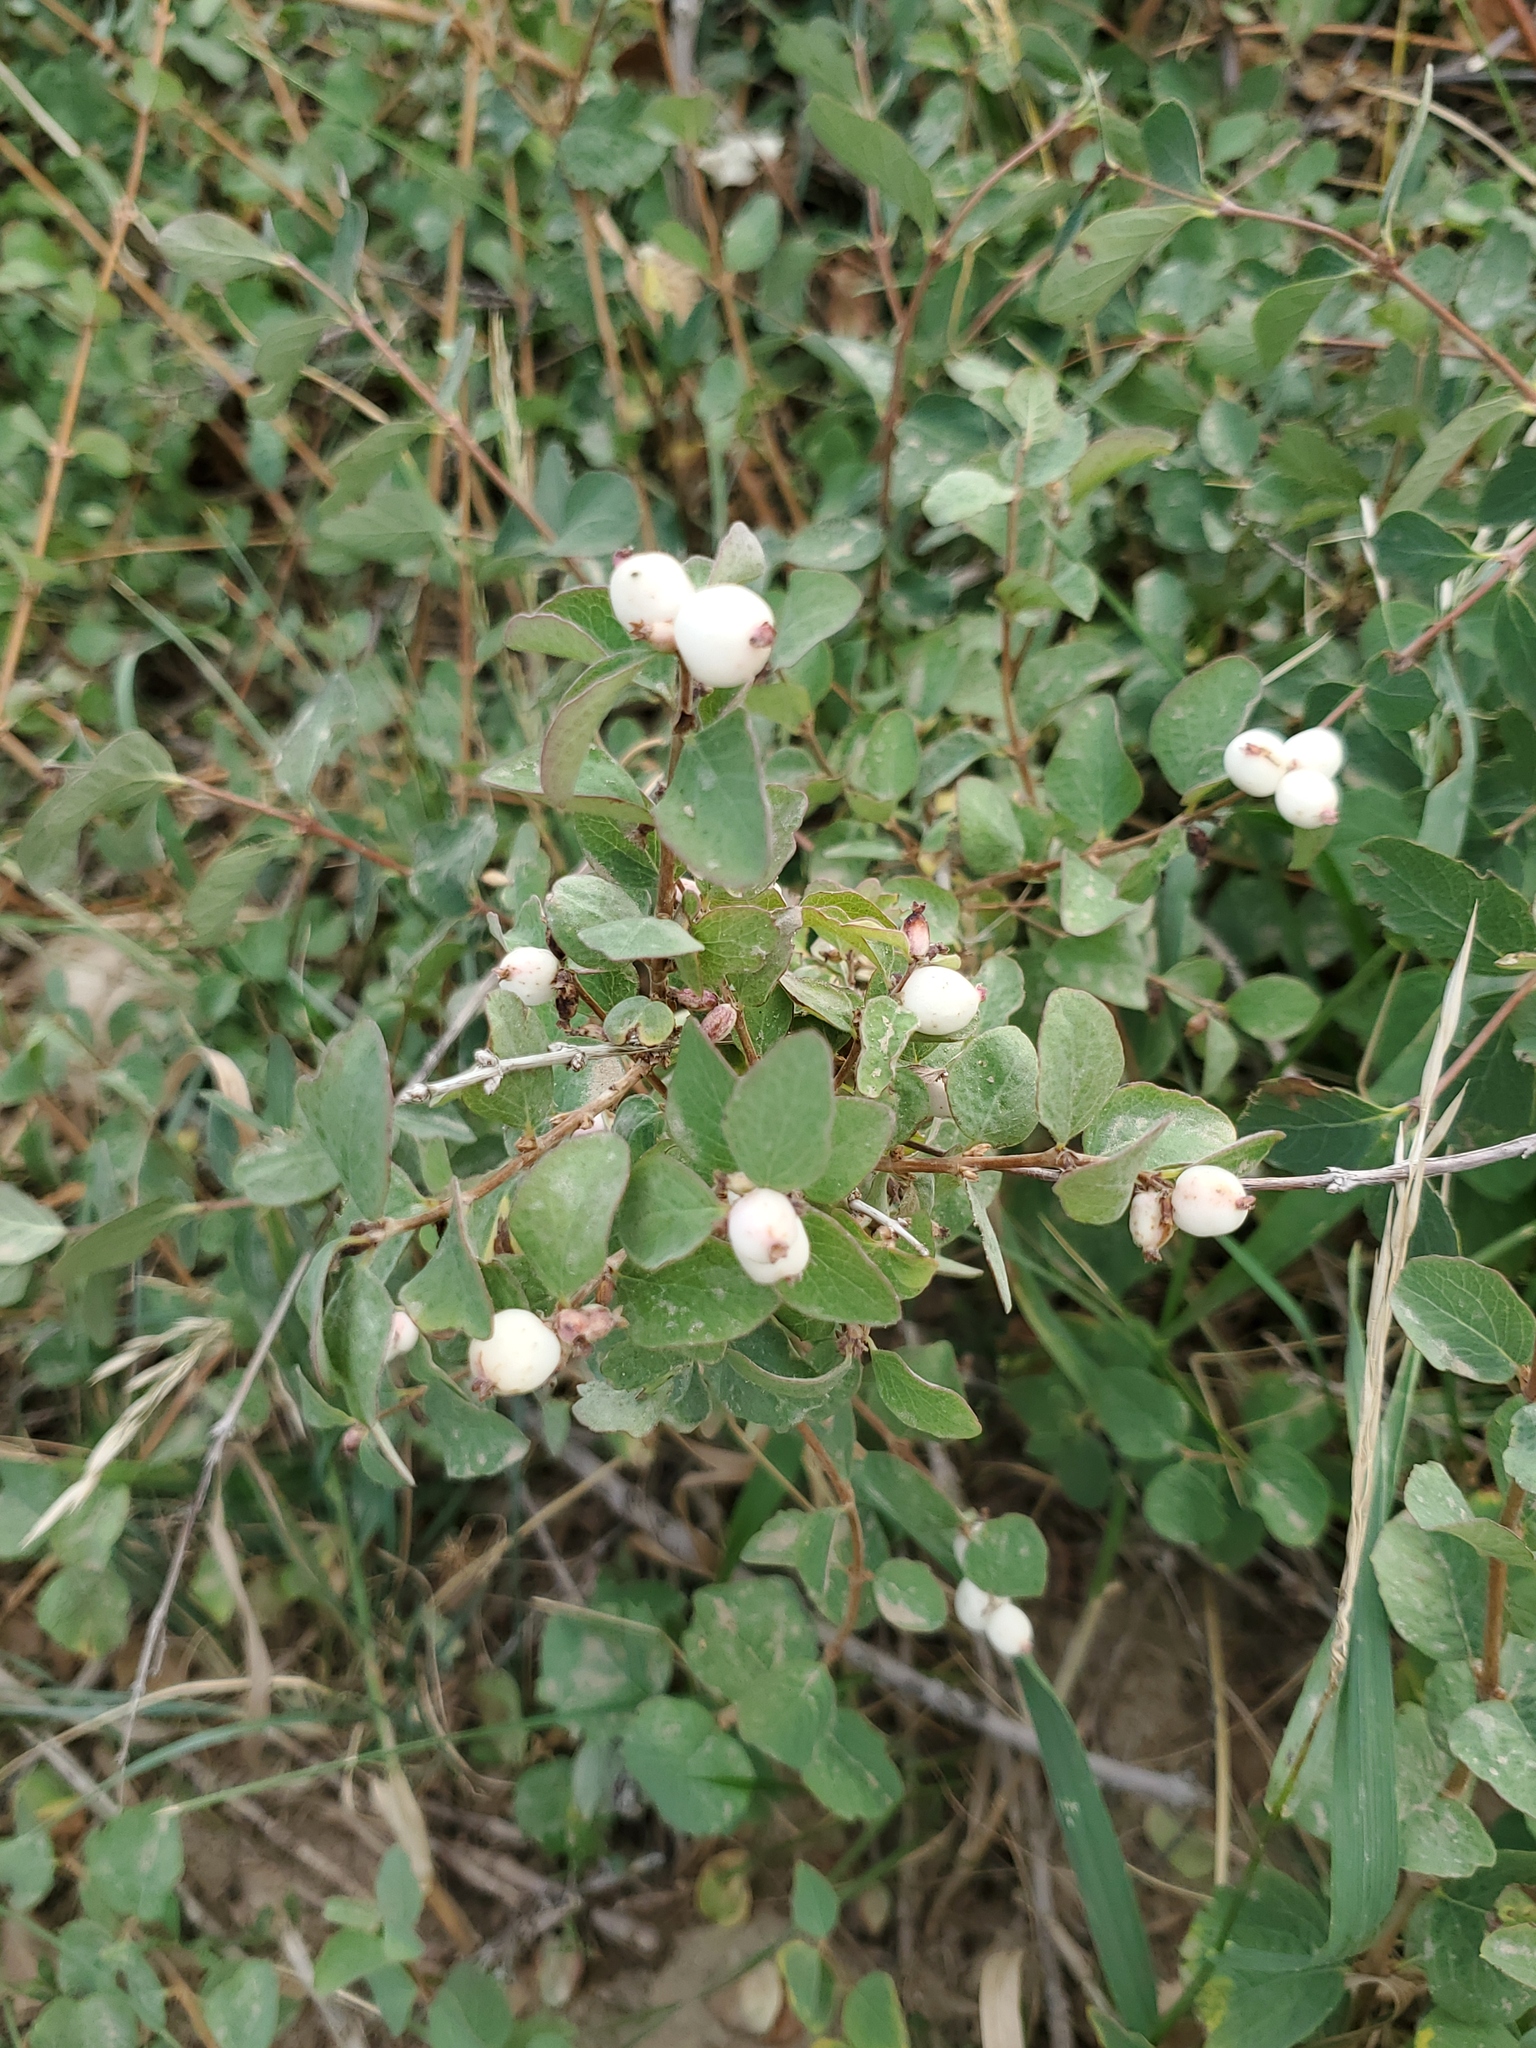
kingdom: Plantae
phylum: Tracheophyta
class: Magnoliopsida
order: Dipsacales
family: Caprifoliaceae
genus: Symphoricarpos
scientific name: Symphoricarpos occidentalis
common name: Wolfberry
